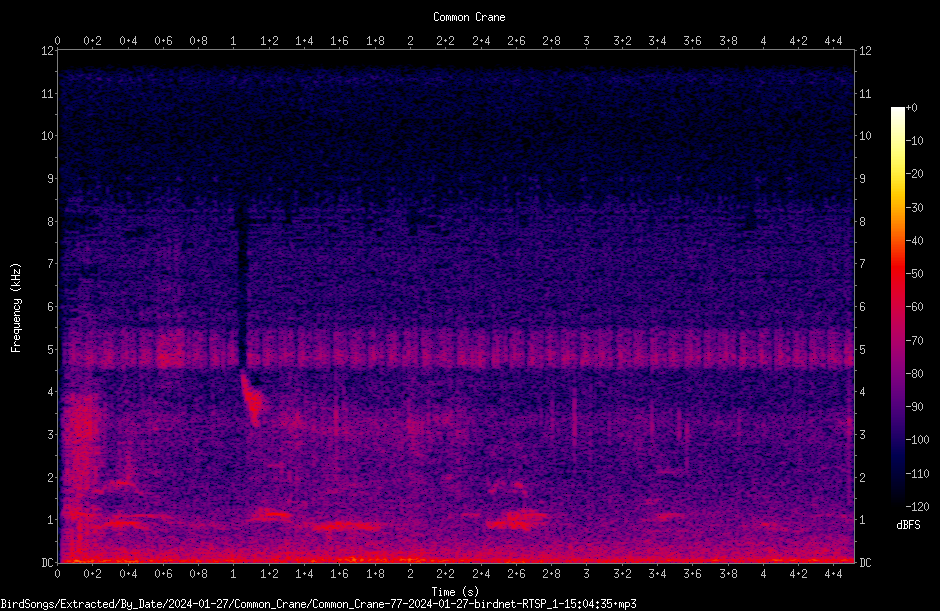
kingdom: Animalia
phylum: Chordata
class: Aves
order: Gruiformes
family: Gruidae
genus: Grus
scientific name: Grus grus
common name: Common crane
